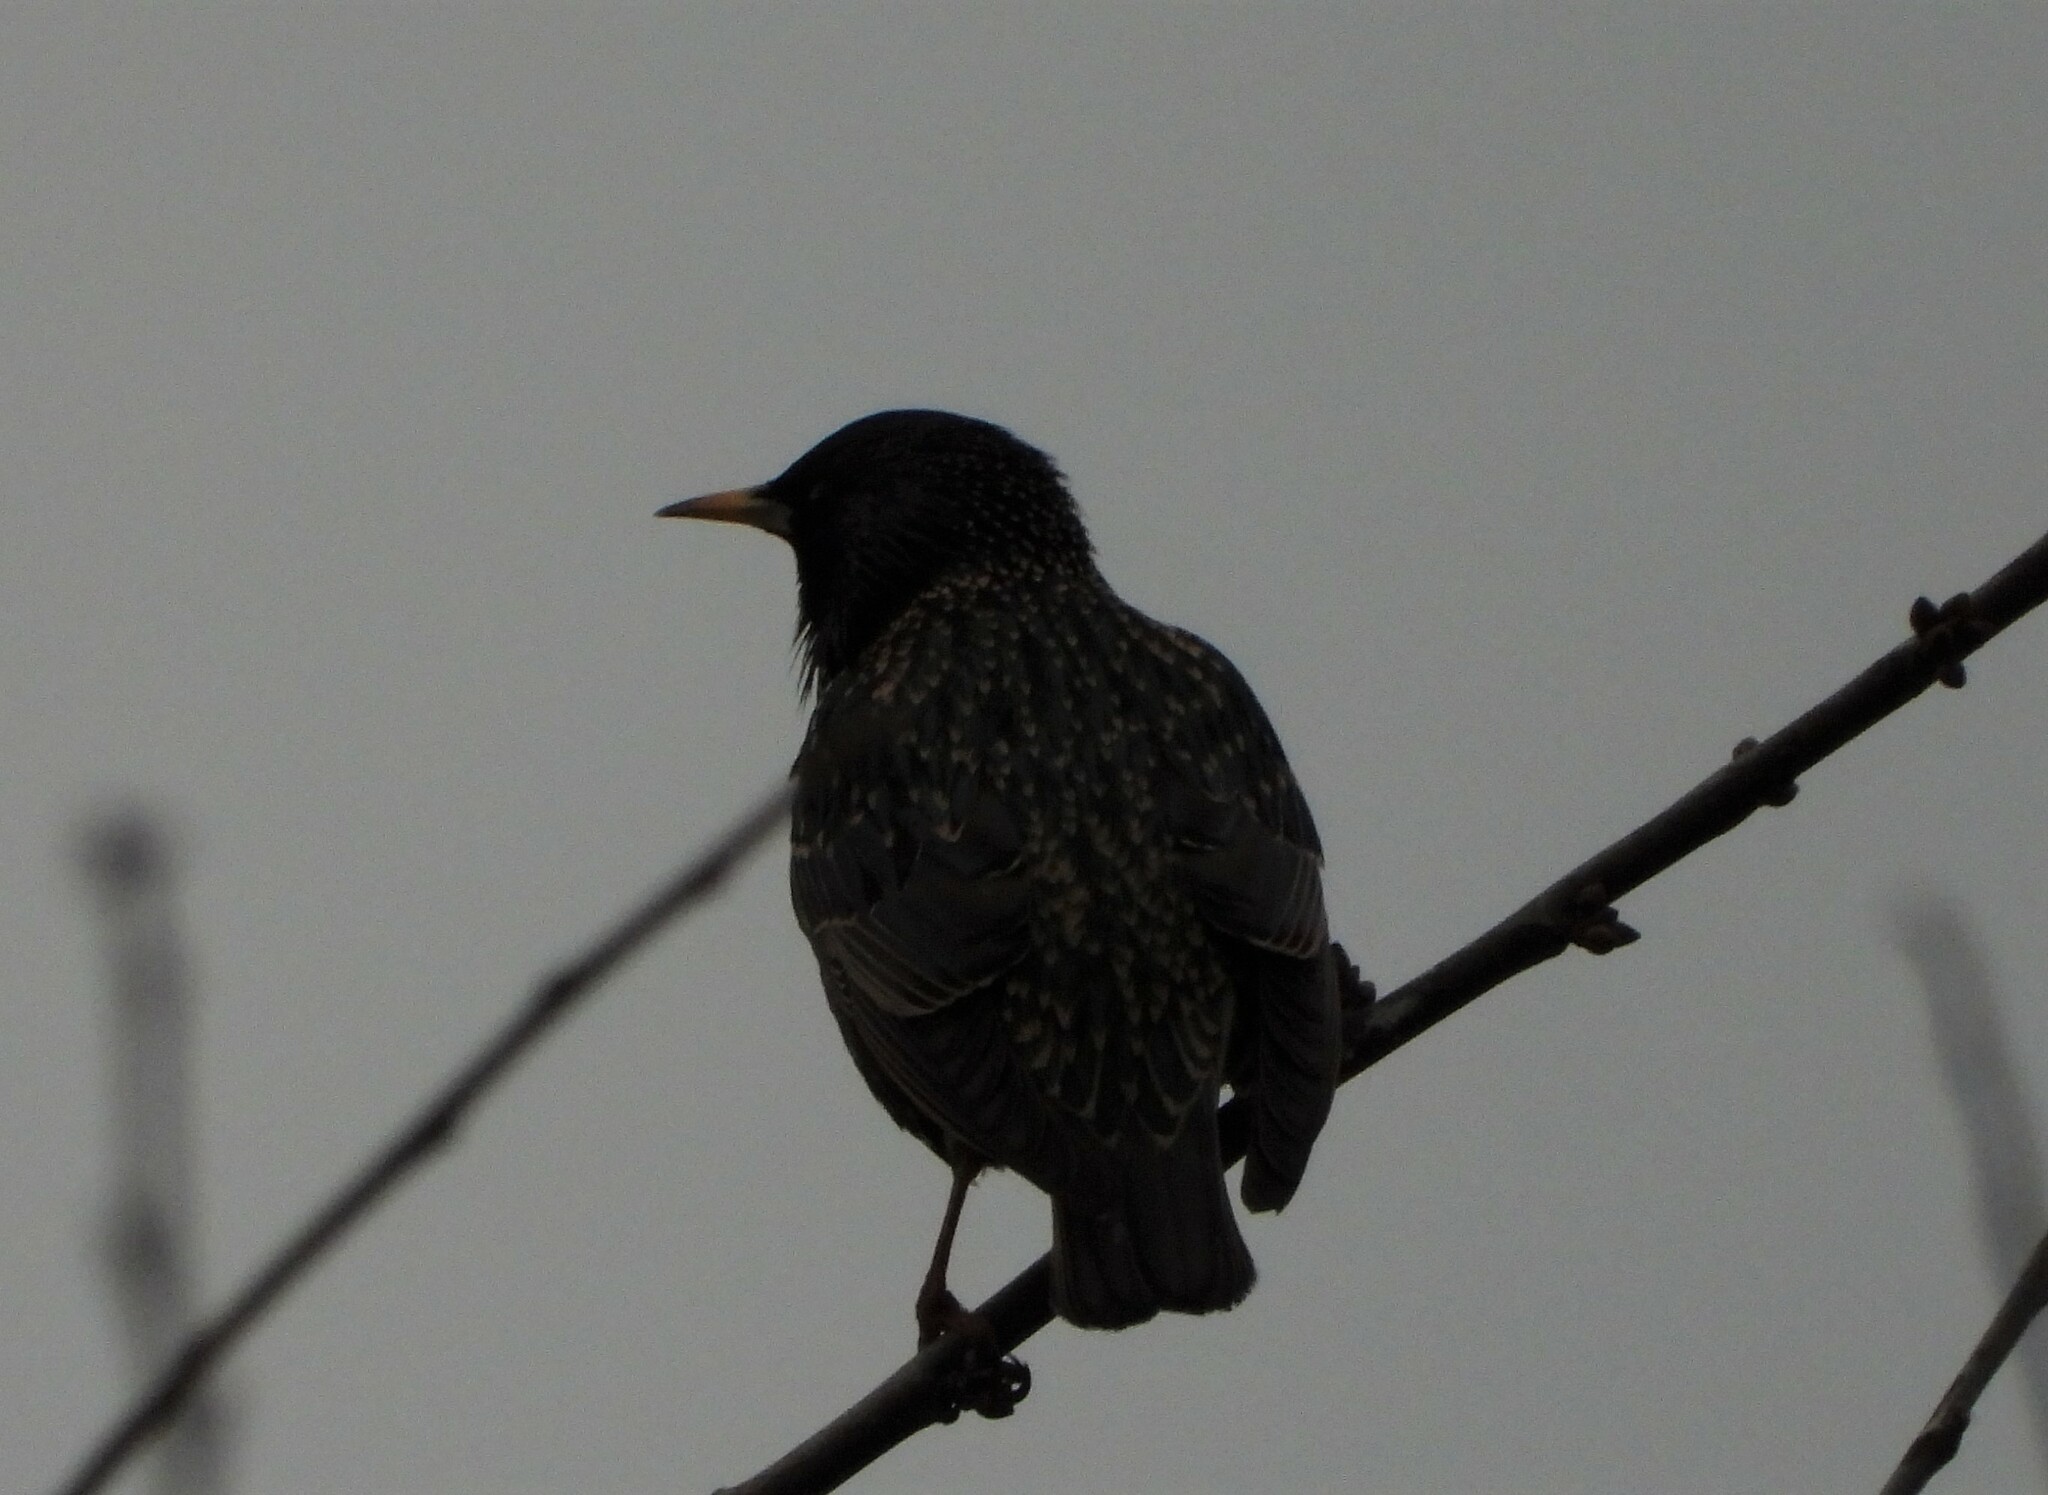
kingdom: Animalia
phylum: Chordata
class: Aves
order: Passeriformes
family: Sturnidae
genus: Sturnus
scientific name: Sturnus vulgaris
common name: Common starling
